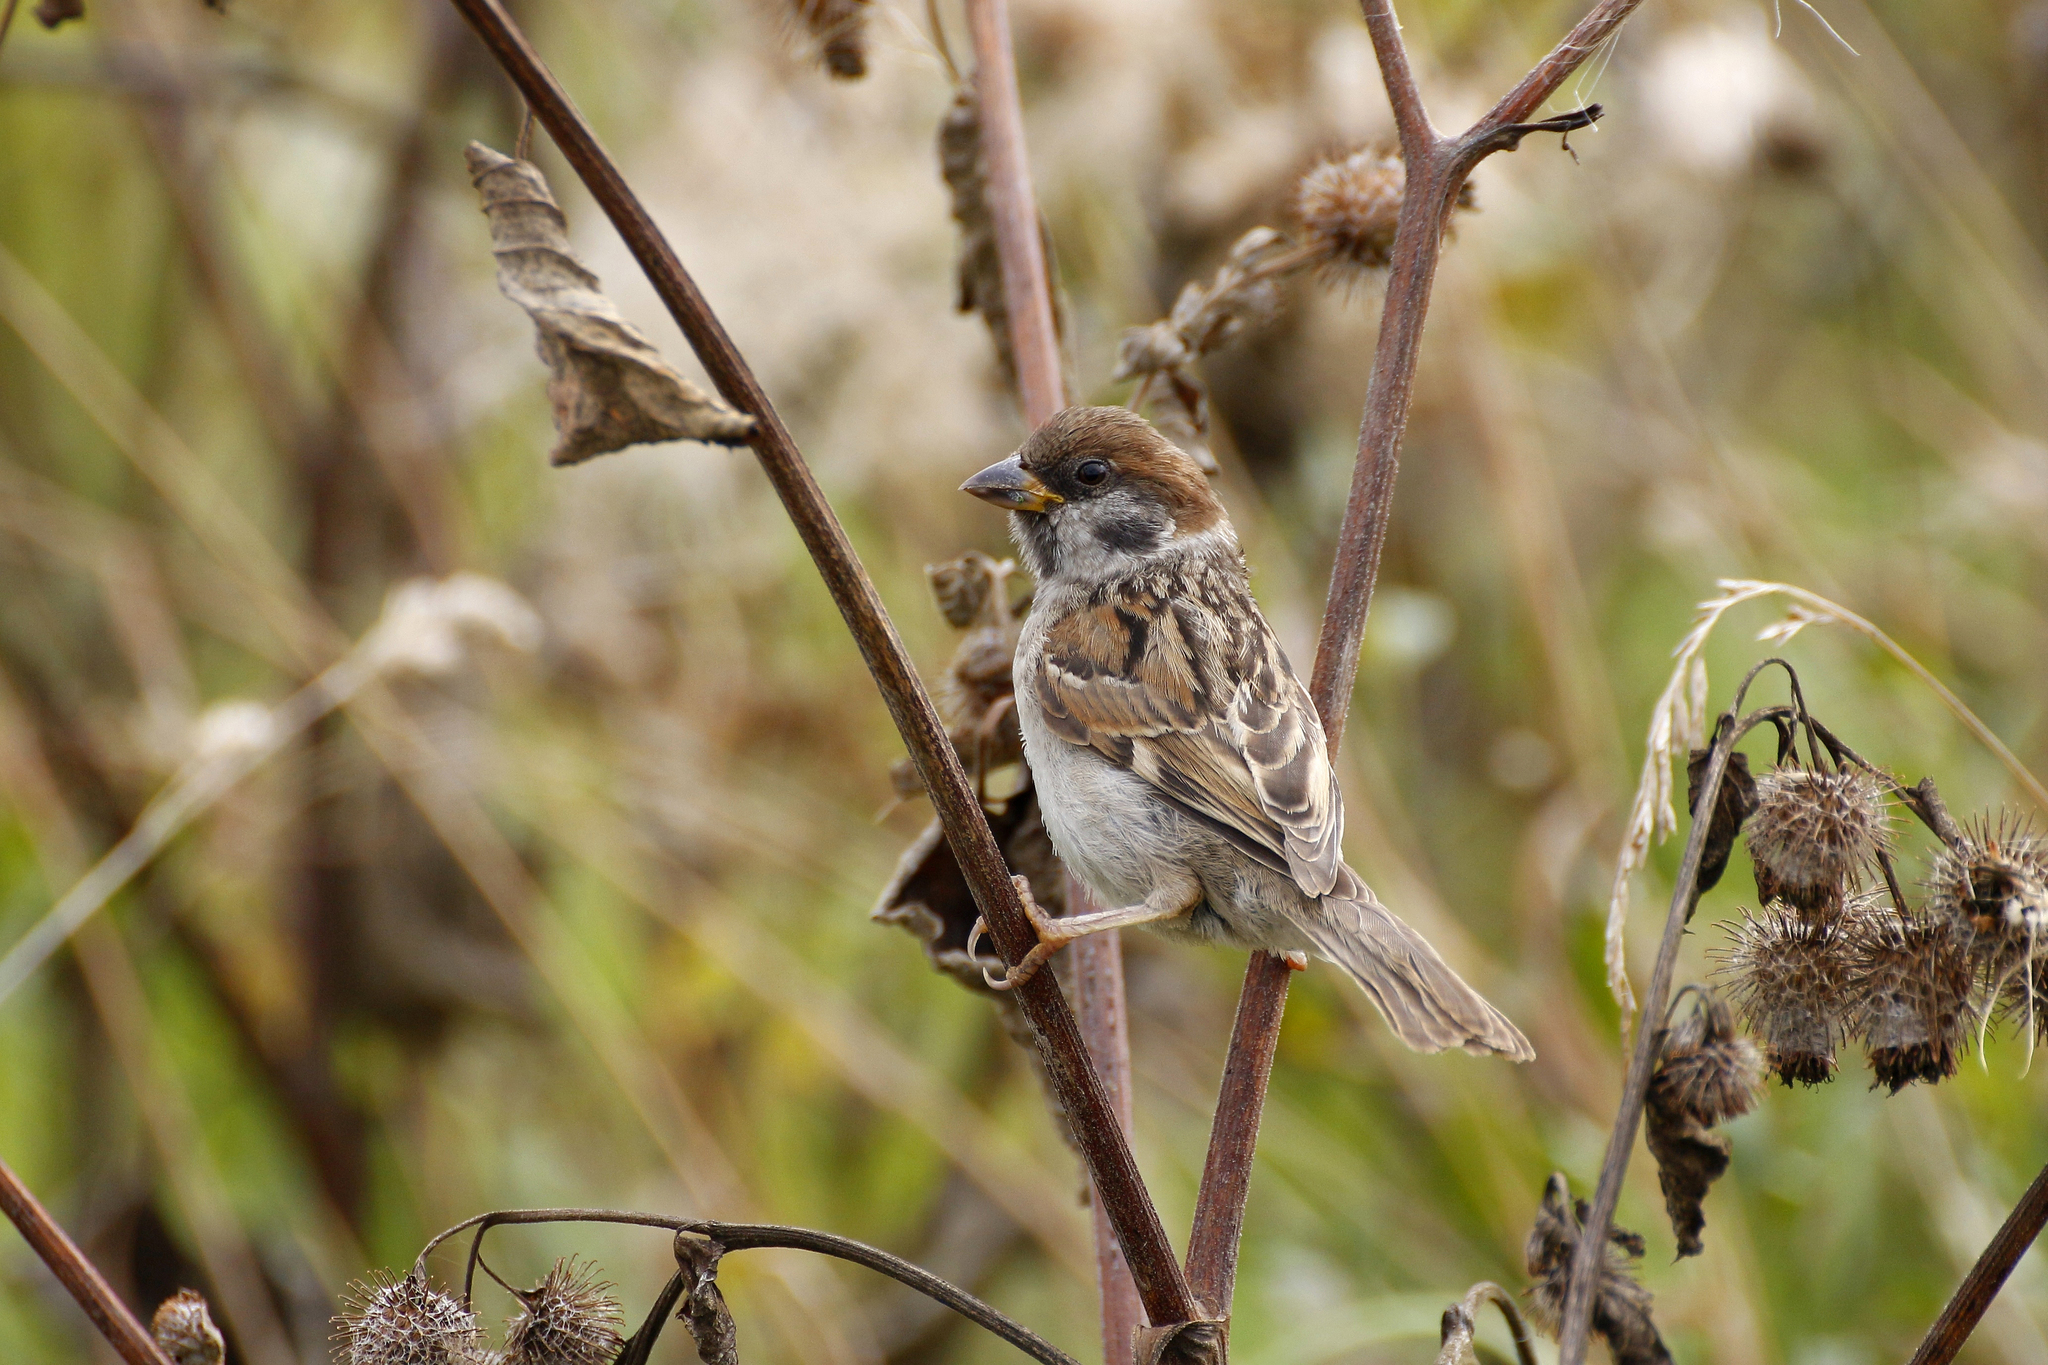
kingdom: Animalia
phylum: Chordata
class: Aves
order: Passeriformes
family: Passeridae
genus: Passer
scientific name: Passer montanus
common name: Eurasian tree sparrow
